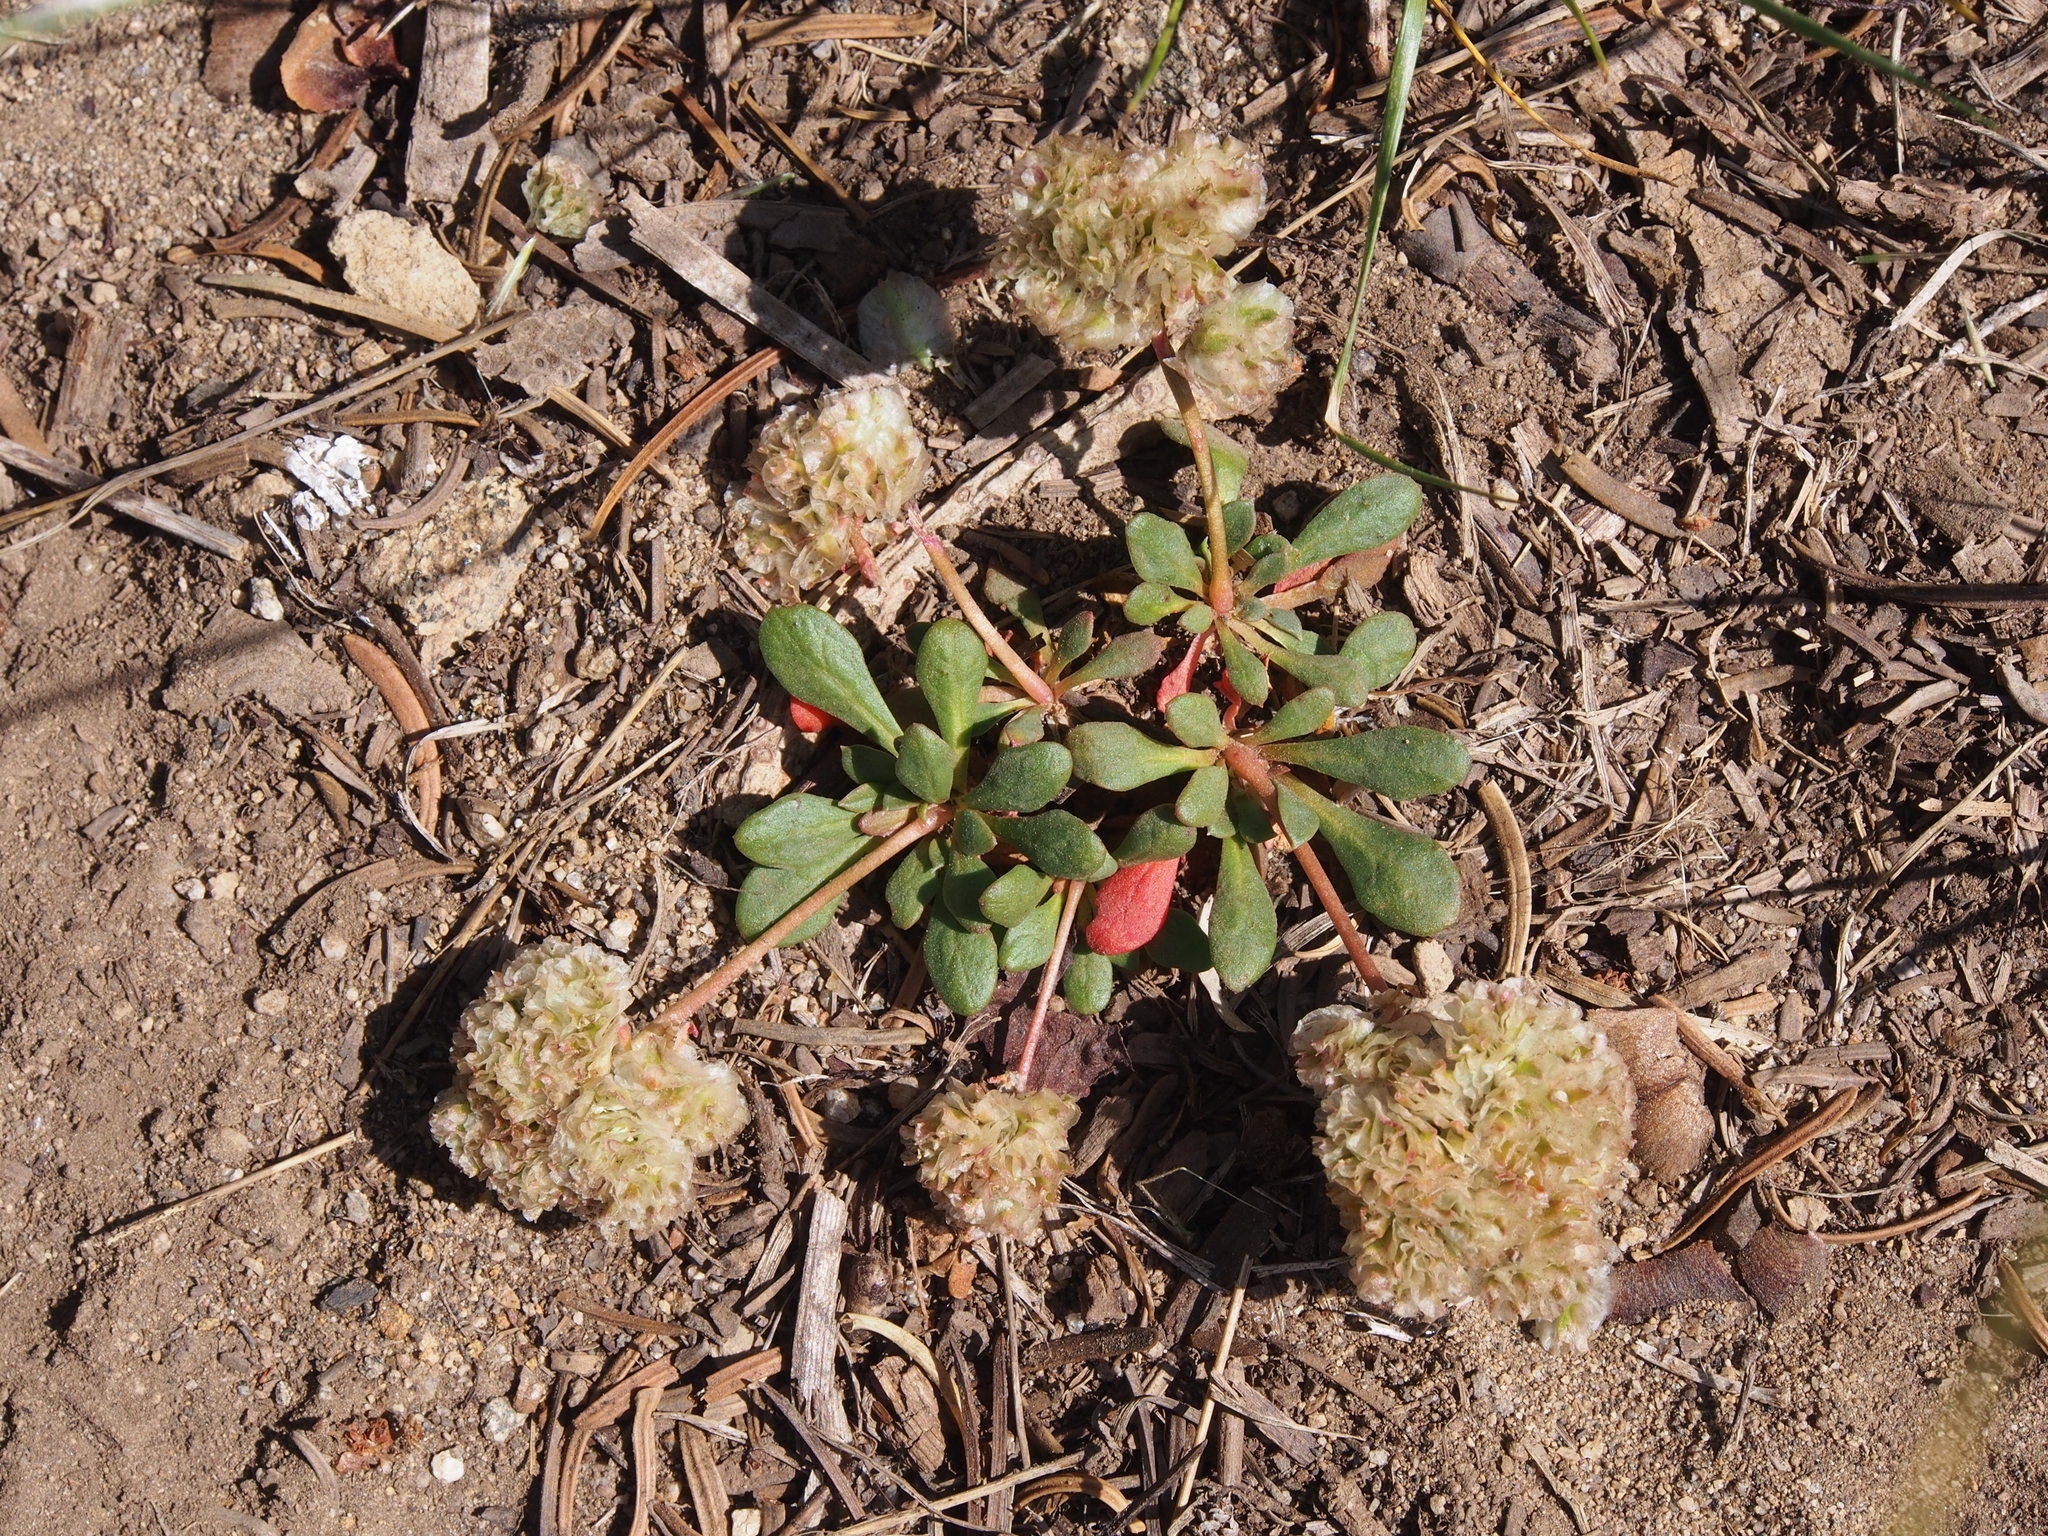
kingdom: Plantae
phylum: Tracheophyta
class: Magnoliopsida
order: Caryophyllales
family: Montiaceae
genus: Calyptridium
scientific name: Calyptridium umbellatum
